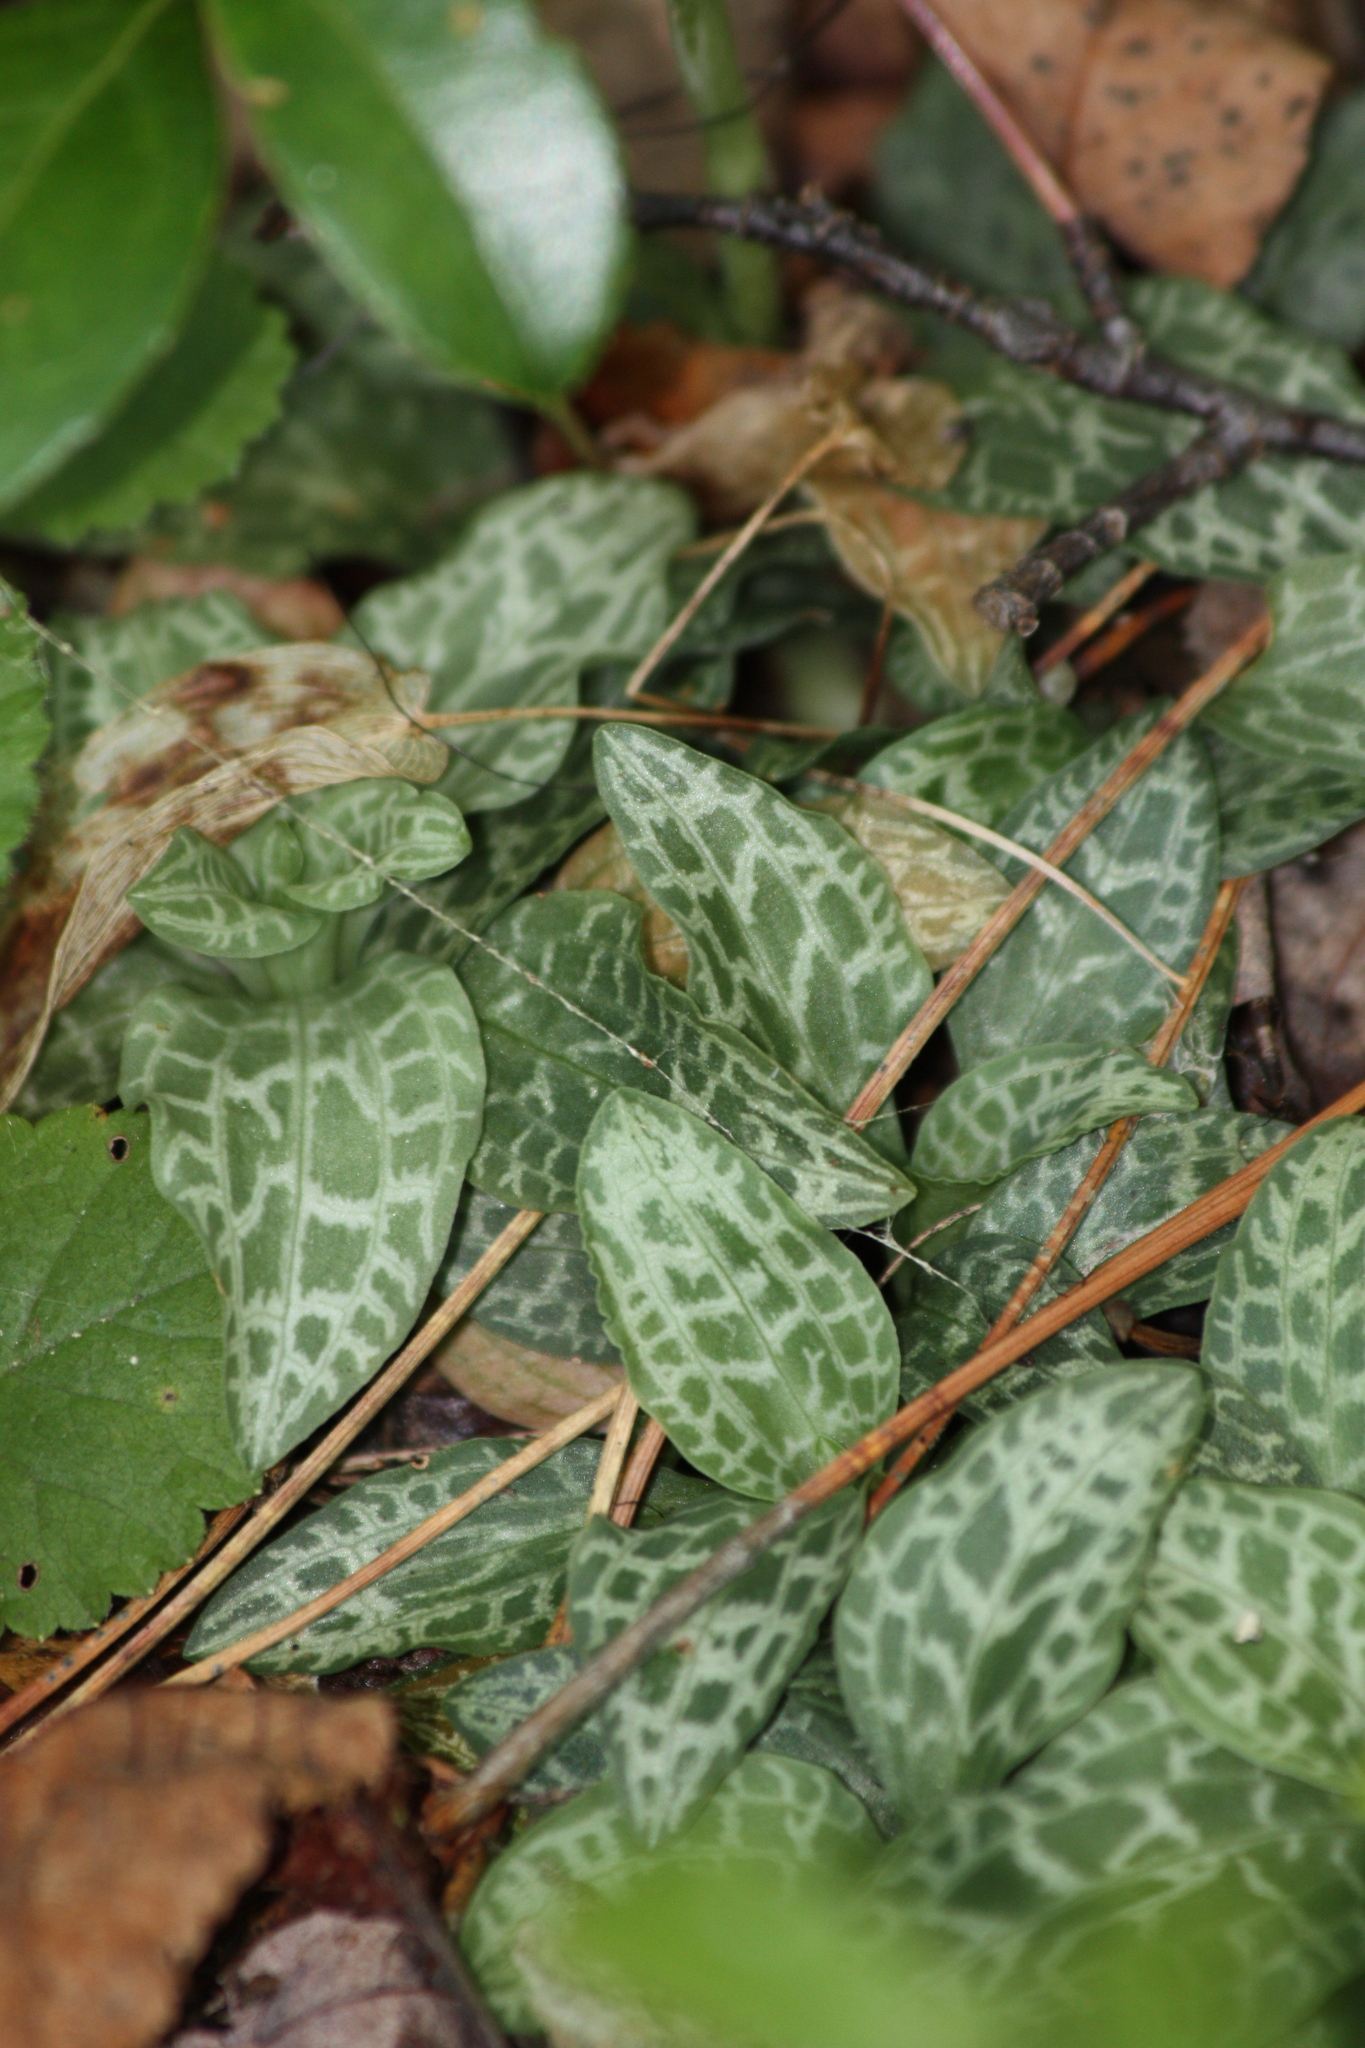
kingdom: Plantae
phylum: Tracheophyta
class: Liliopsida
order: Asparagales
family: Orchidaceae
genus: Goodyera
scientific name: Goodyera tesselata
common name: Checkered rattlesnake-plantain
